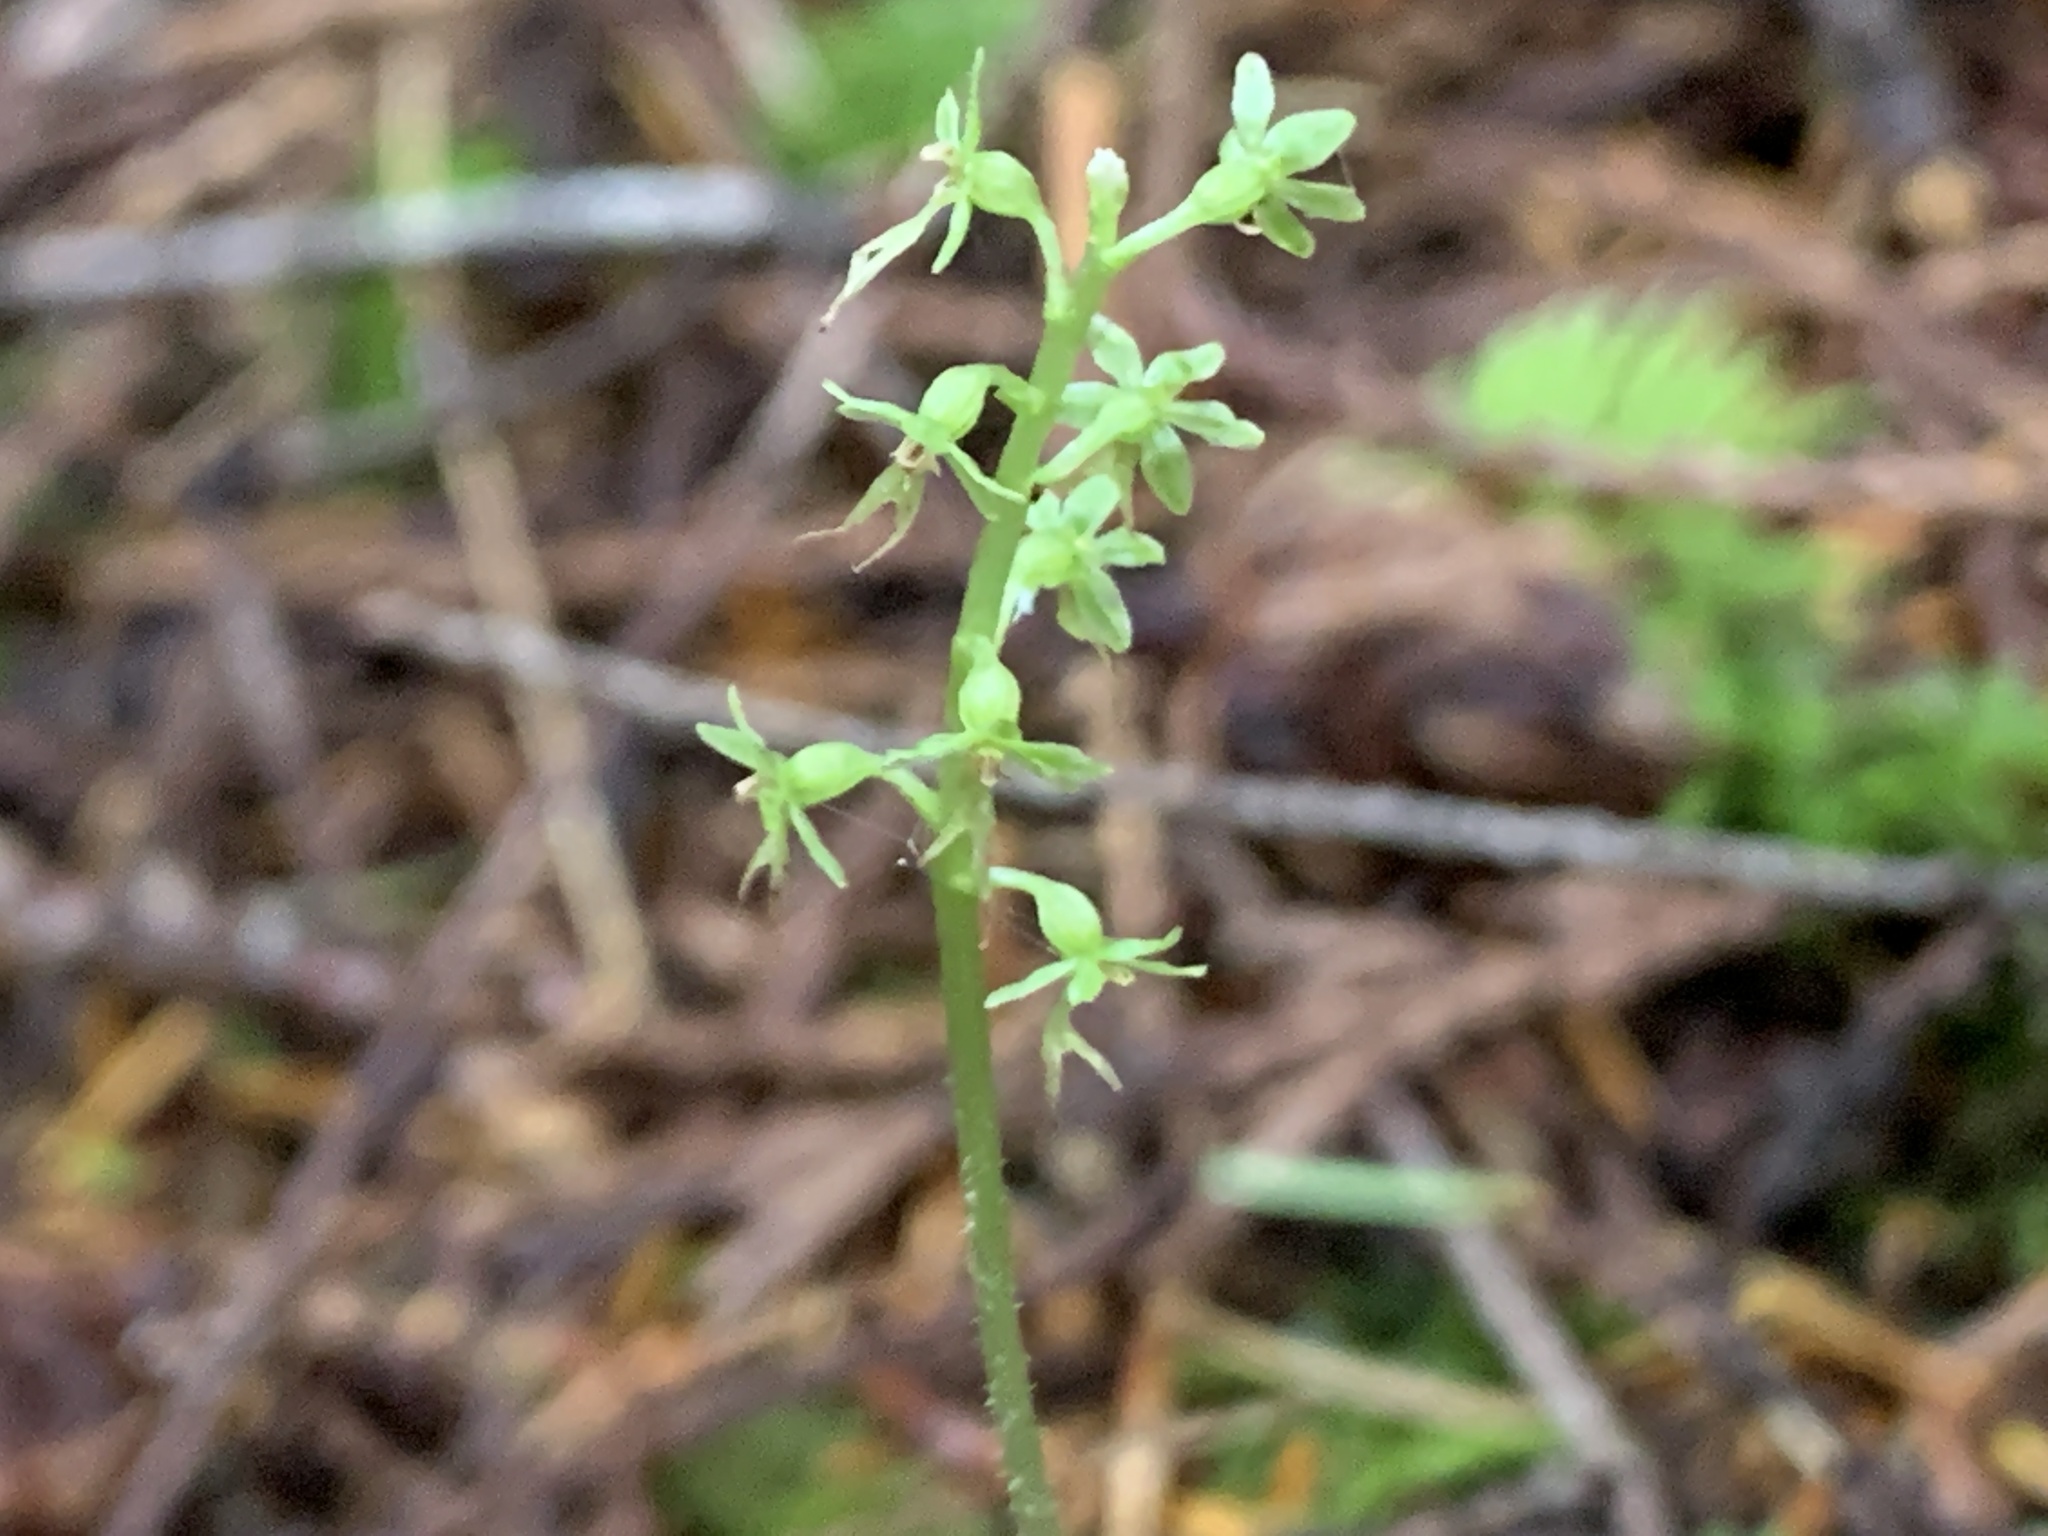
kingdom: Plantae
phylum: Tracheophyta
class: Liliopsida
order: Asparagales
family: Orchidaceae
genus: Neottia
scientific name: Neottia cordata
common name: Lesser twayblade
